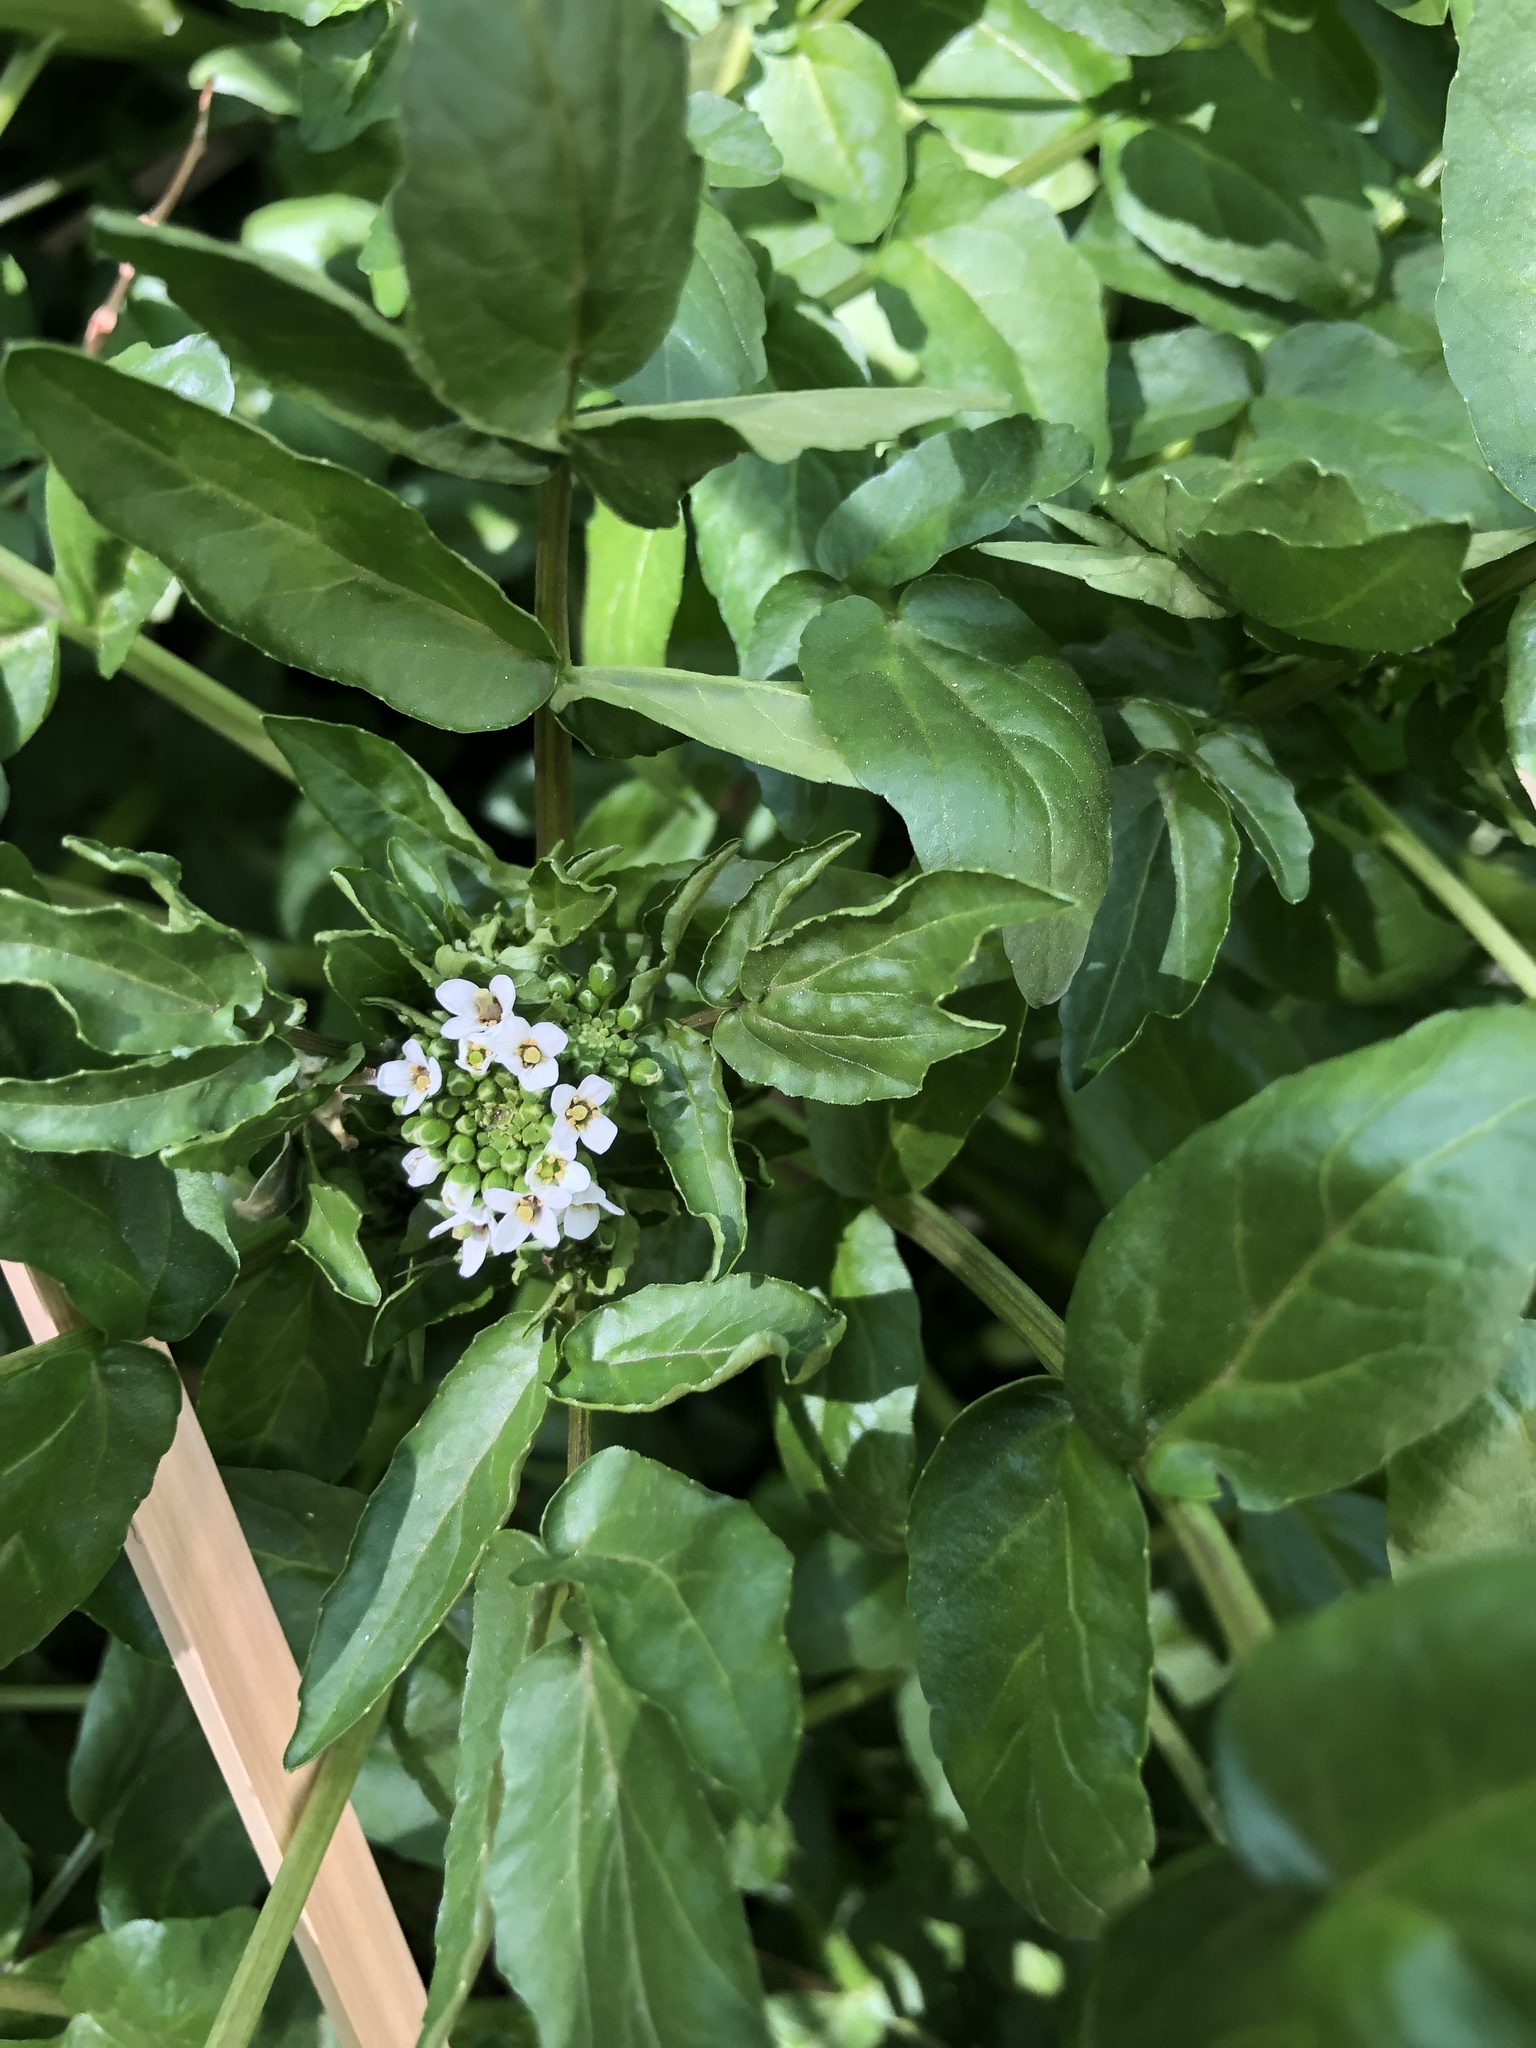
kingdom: Plantae
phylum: Tracheophyta
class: Magnoliopsida
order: Brassicales
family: Brassicaceae
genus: Nasturtium
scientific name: Nasturtium officinale
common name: Watercress
